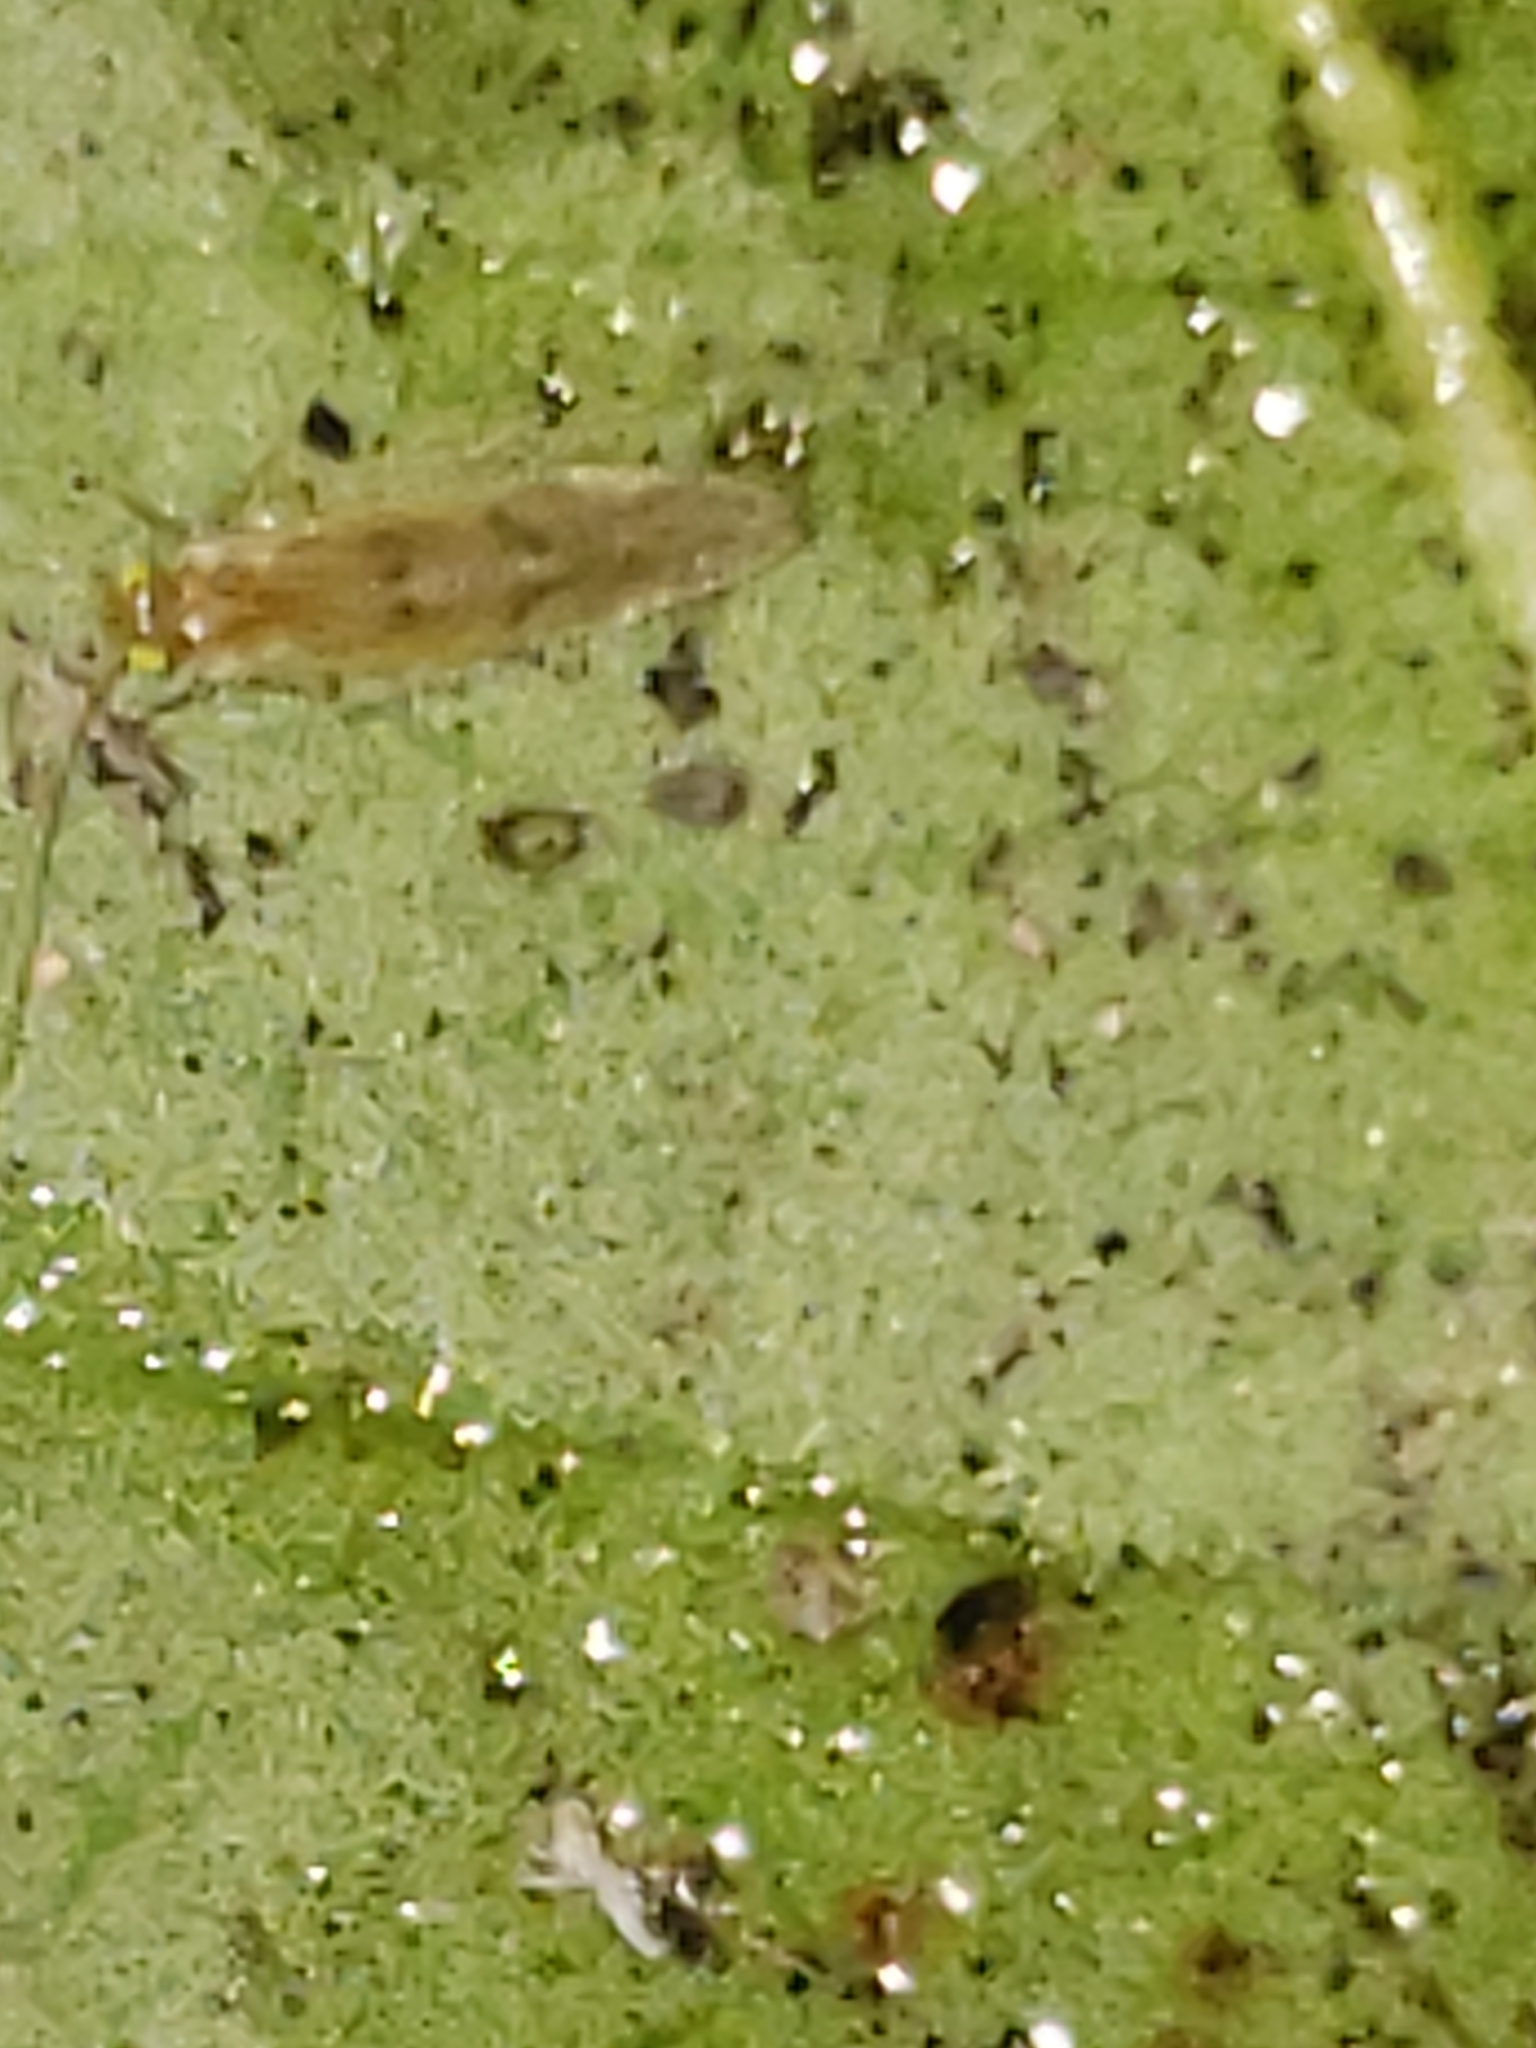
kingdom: Animalia
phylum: Arthropoda
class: Insecta
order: Psocodea
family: Paracaeciliidae
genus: Xanthocaecilius
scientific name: Xanthocaecilius sommermanae
